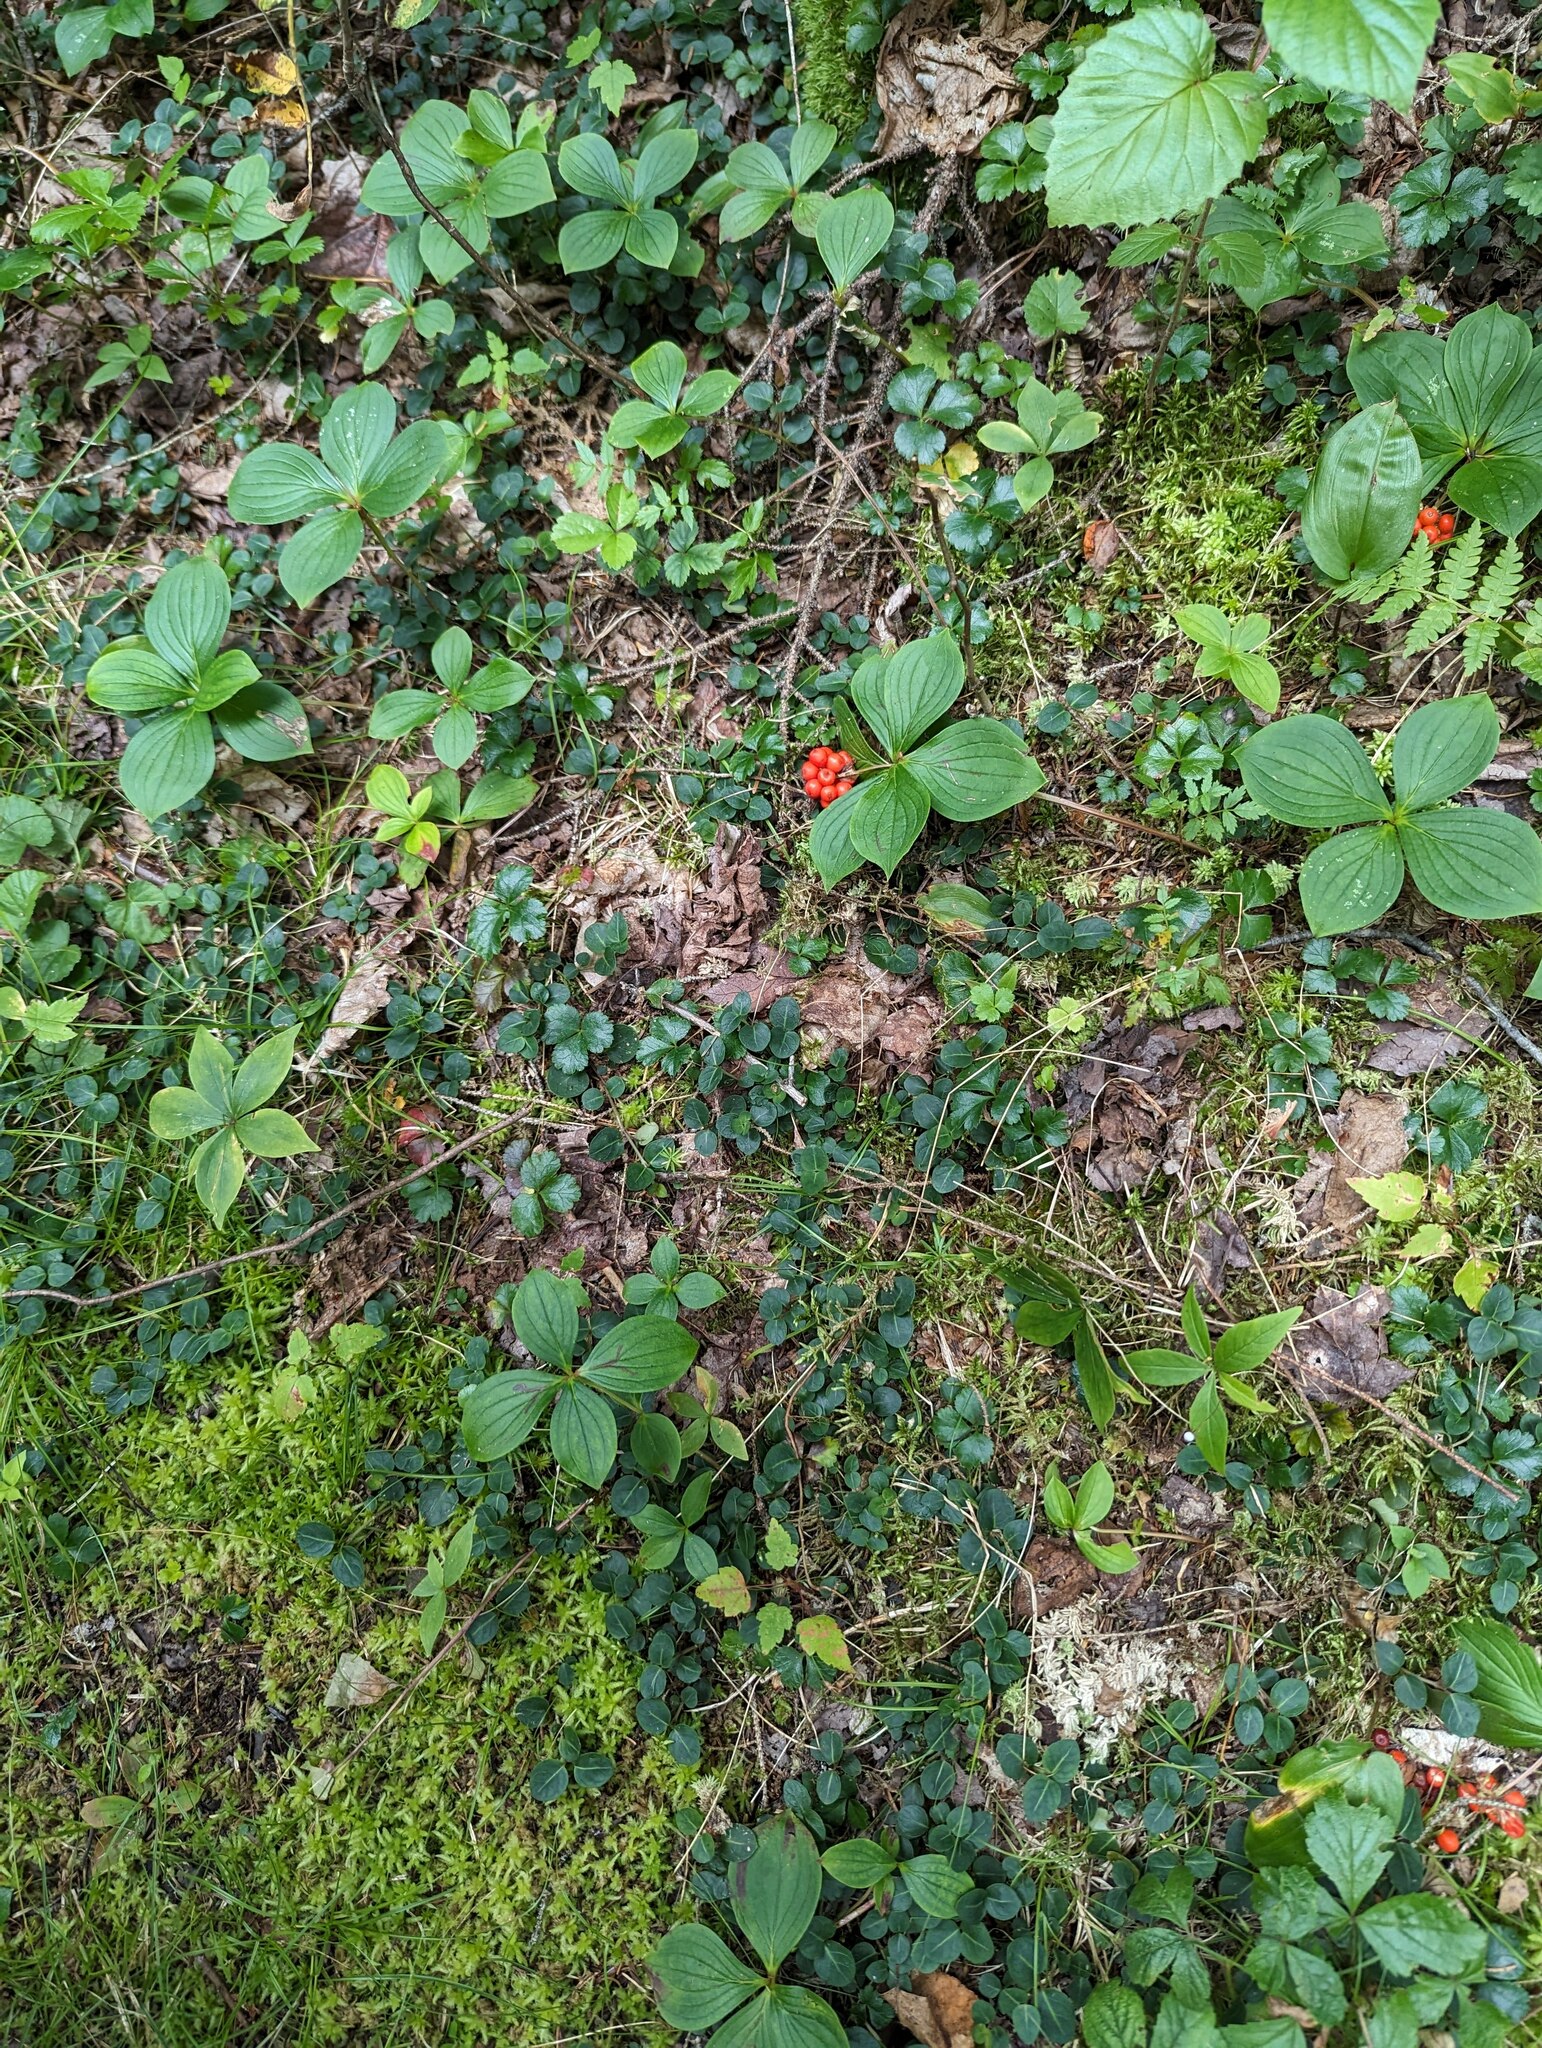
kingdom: Plantae
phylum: Tracheophyta
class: Magnoliopsida
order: Cornales
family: Cornaceae
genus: Cornus
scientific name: Cornus canadensis
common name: Creeping dogwood
